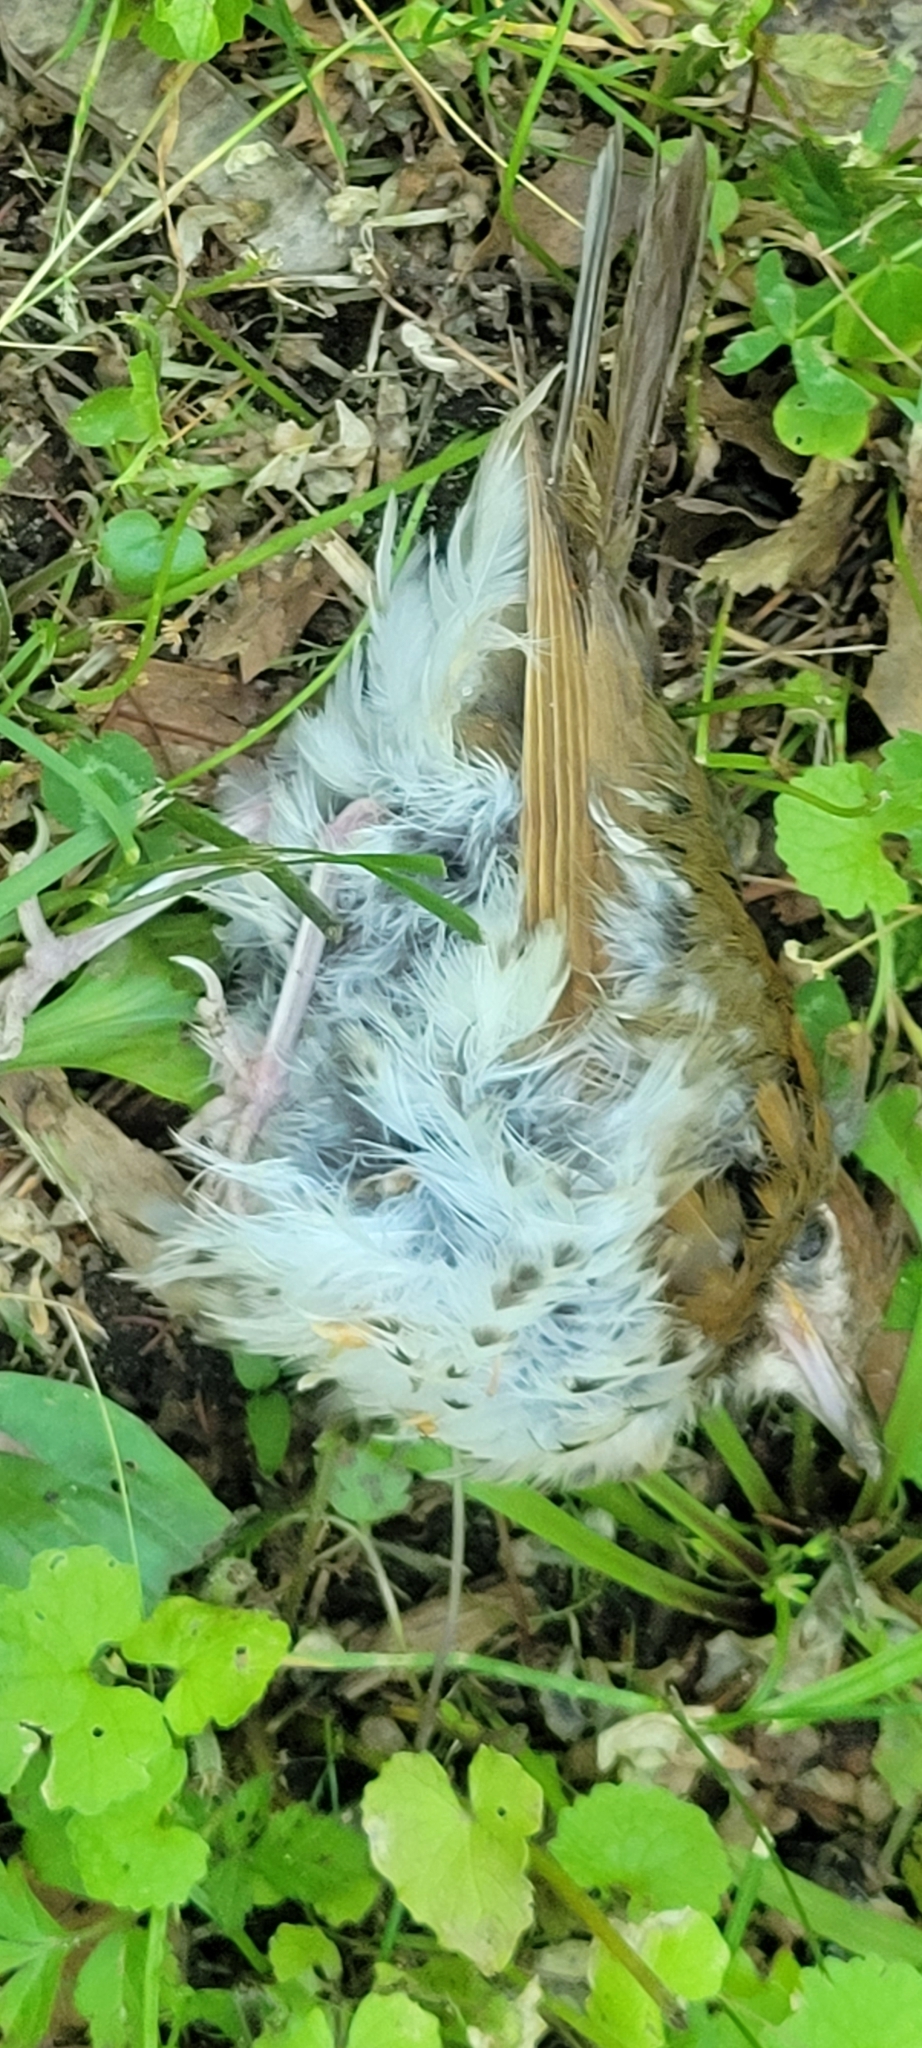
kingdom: Animalia
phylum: Chordata
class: Aves
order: Passeriformes
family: Turdidae
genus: Hylocichla
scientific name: Hylocichla mustelina
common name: Wood thrush
